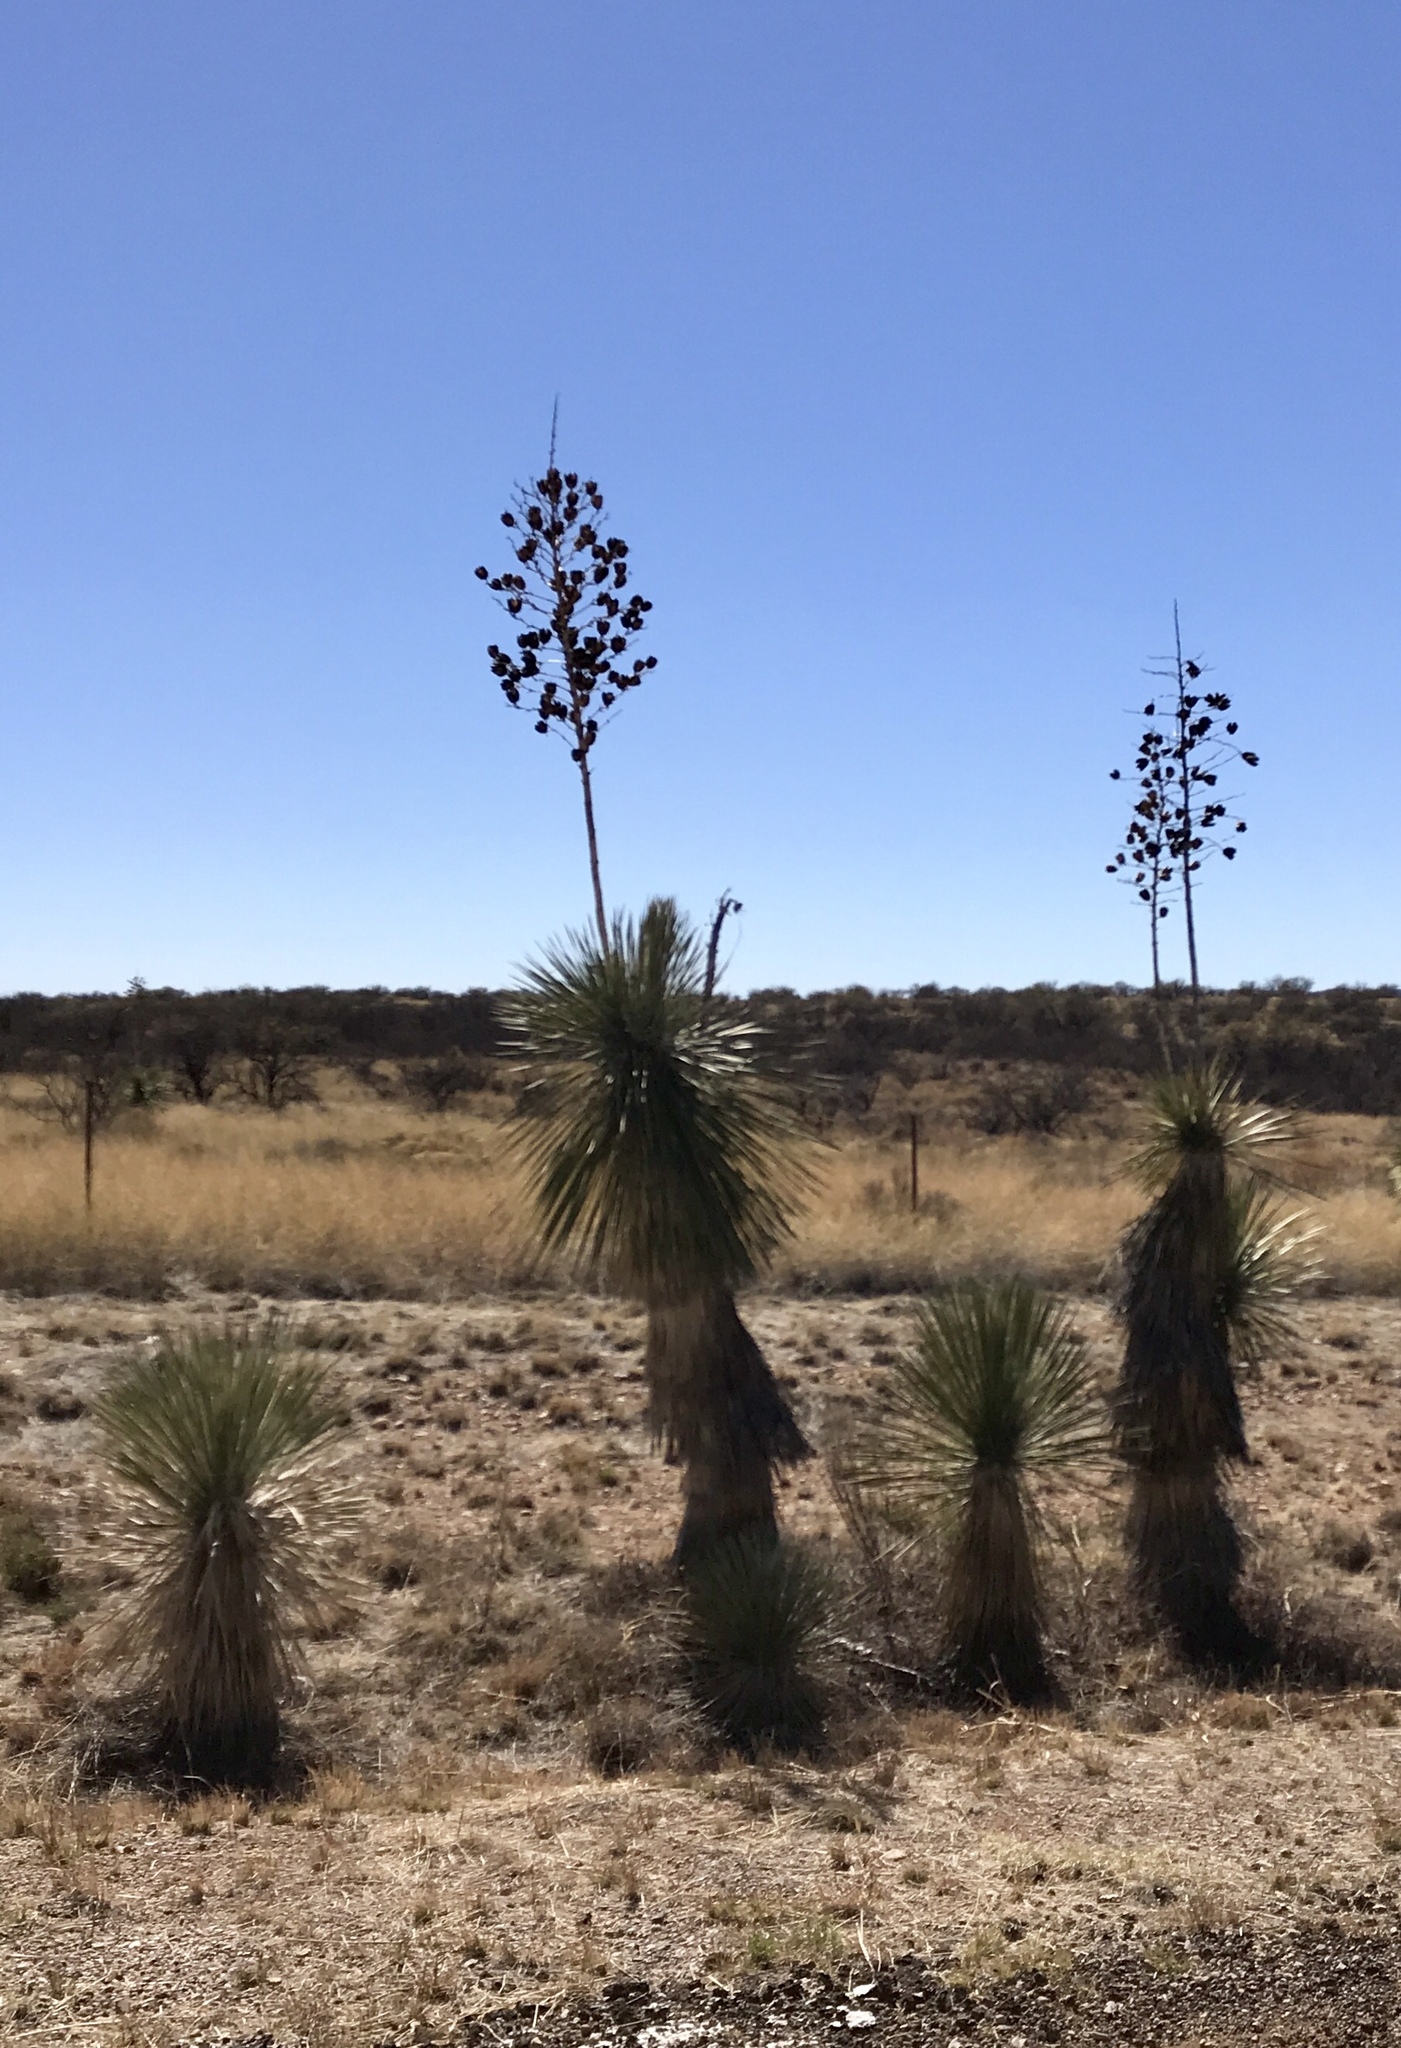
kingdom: Plantae
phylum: Tracheophyta
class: Liliopsida
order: Asparagales
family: Asparagaceae
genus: Yucca
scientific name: Yucca elata
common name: Palmella
